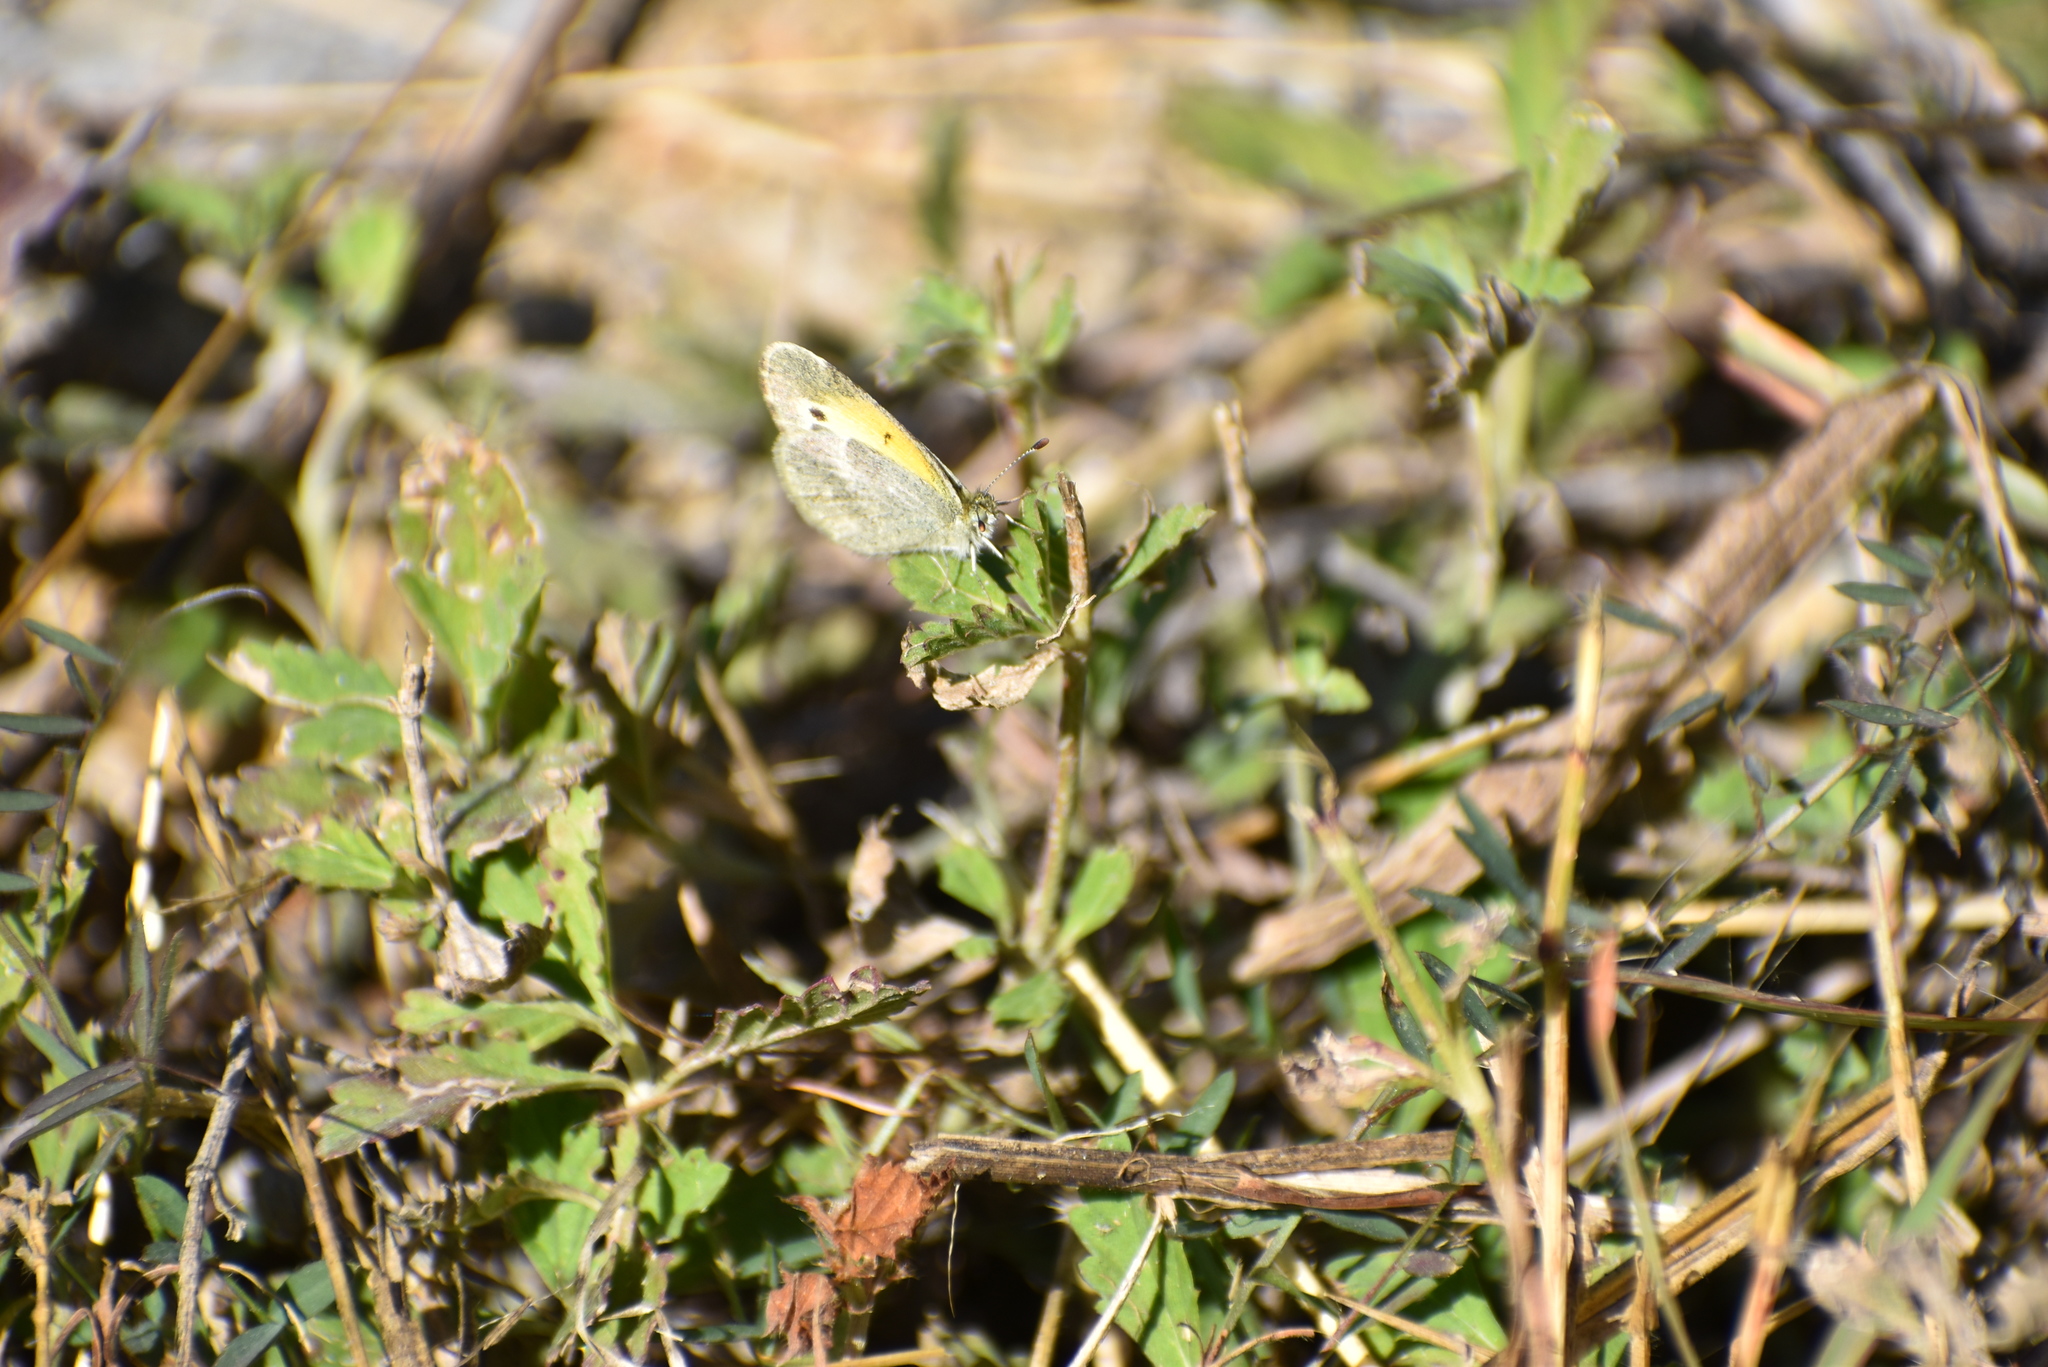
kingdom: Animalia
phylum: Arthropoda
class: Insecta
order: Lepidoptera
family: Pieridae
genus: Nathalis
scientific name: Nathalis iole
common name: Dainty sulphur
